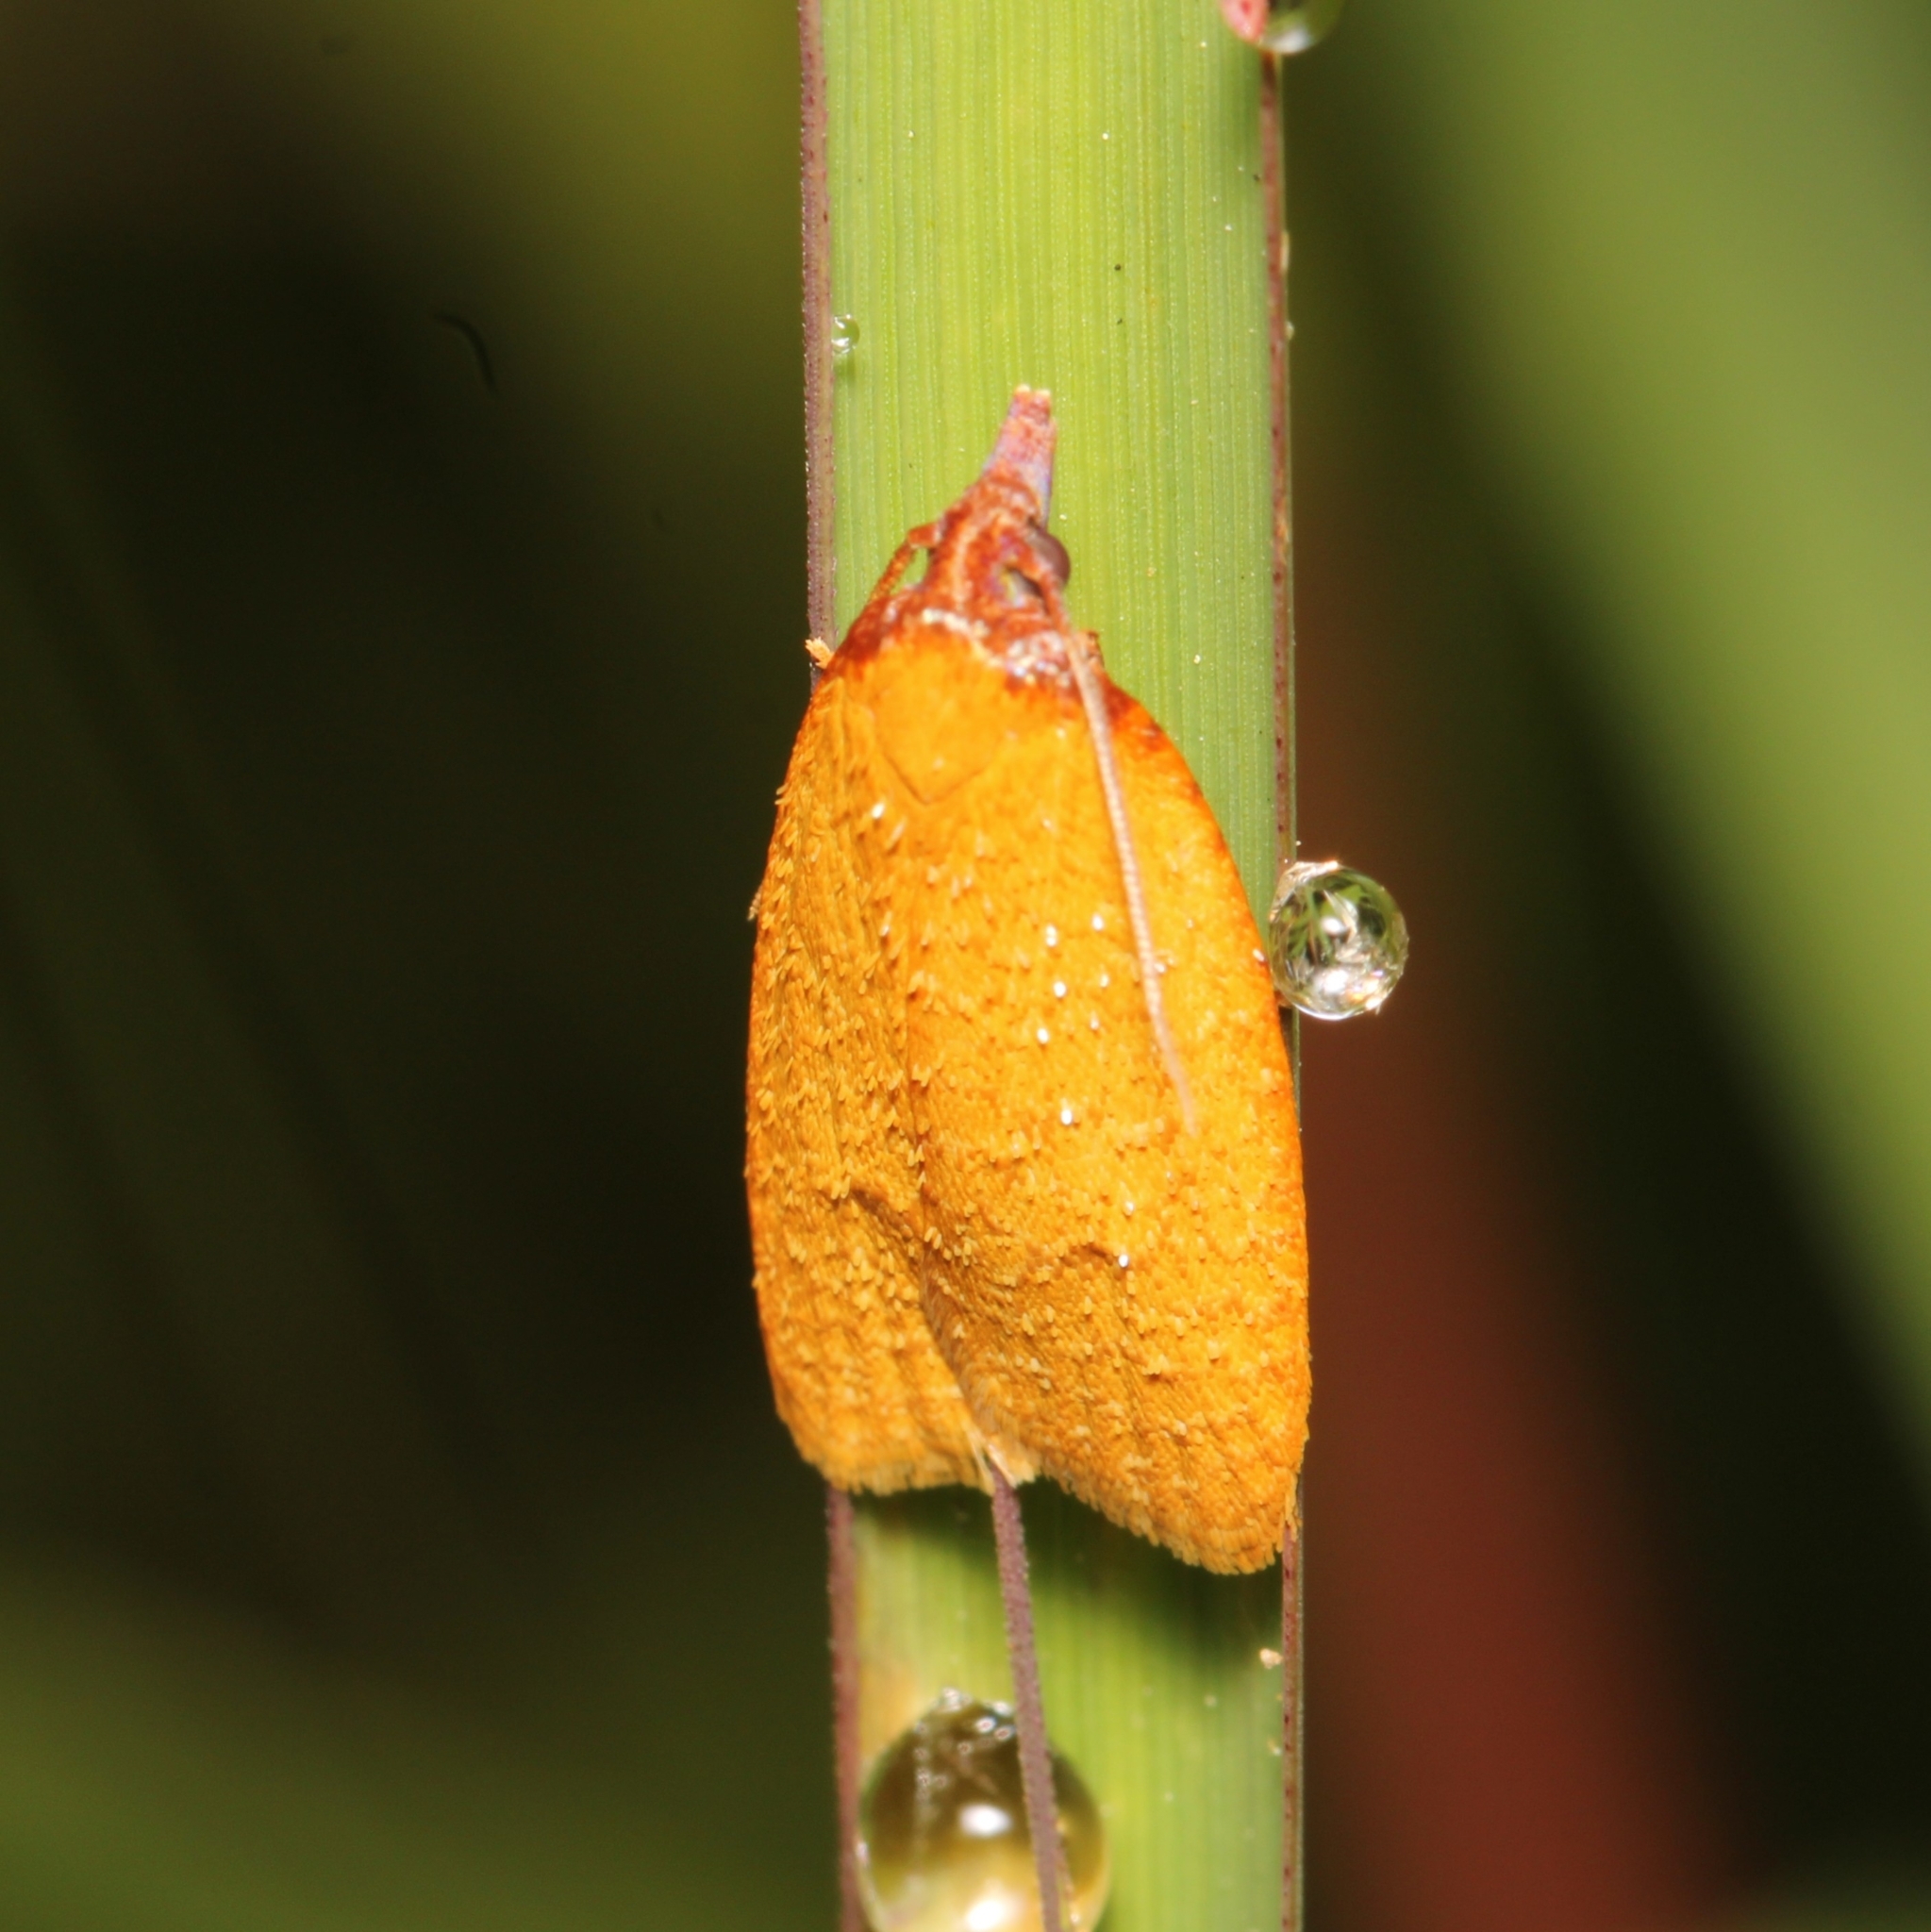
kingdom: Animalia
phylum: Arthropoda
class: Insecta
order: Lepidoptera
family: Tortricidae
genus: Sparganothis
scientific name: Sparganothis distincta
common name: Distinct sparganothis moth
